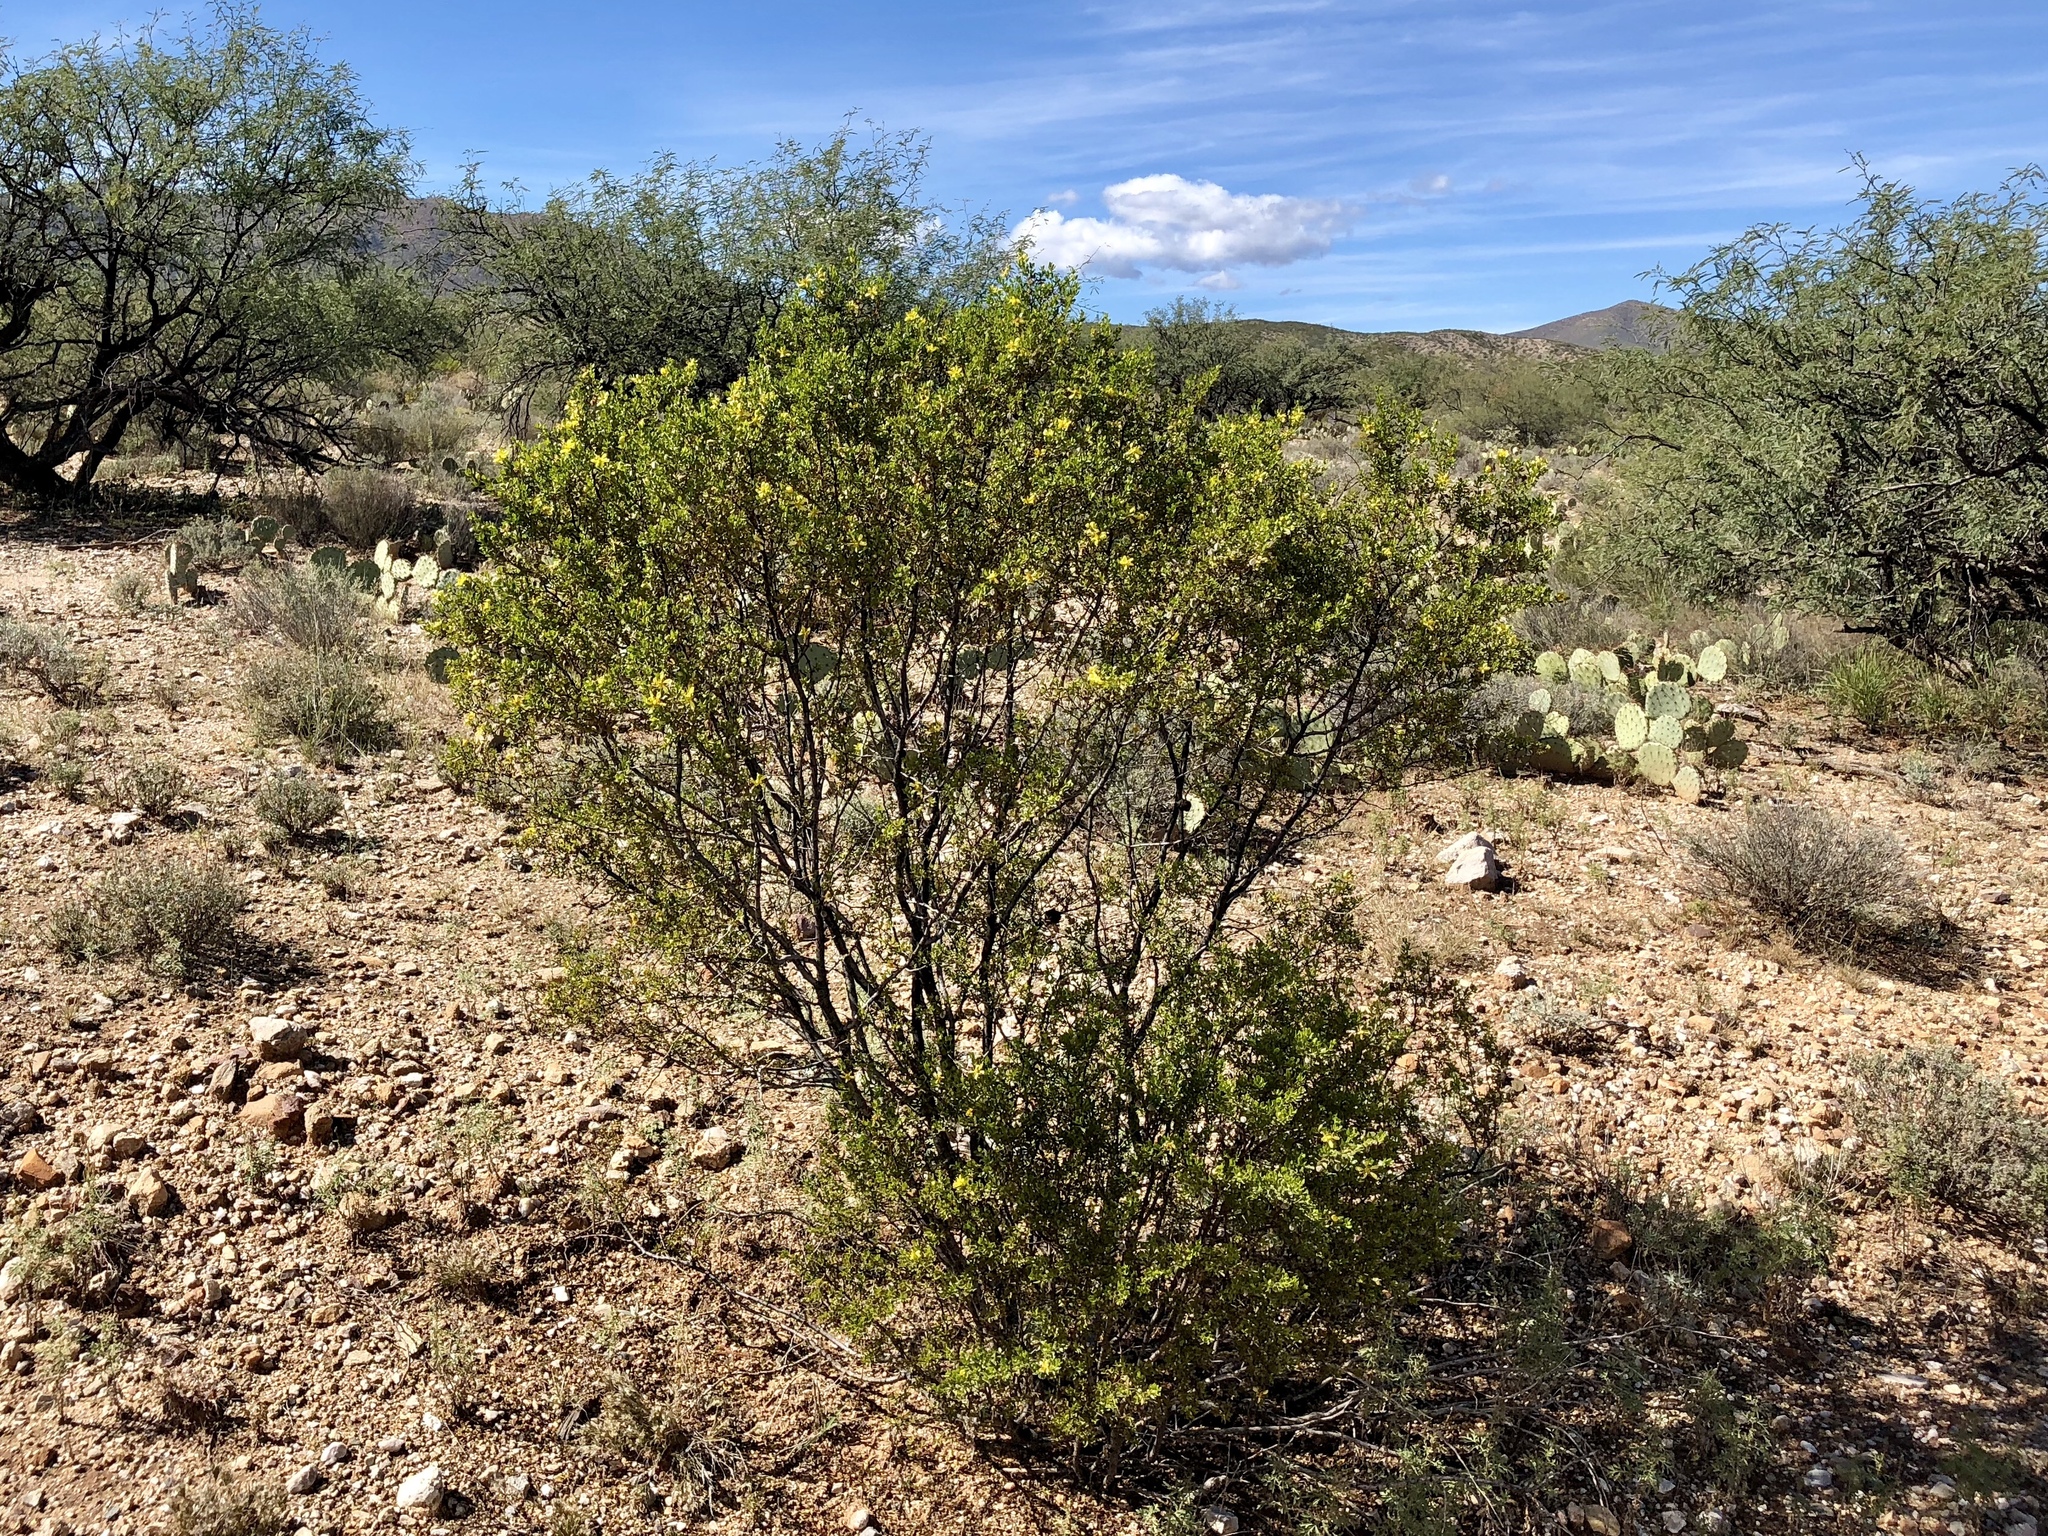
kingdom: Plantae
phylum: Tracheophyta
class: Magnoliopsida
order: Zygophyllales
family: Zygophyllaceae
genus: Larrea
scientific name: Larrea tridentata
